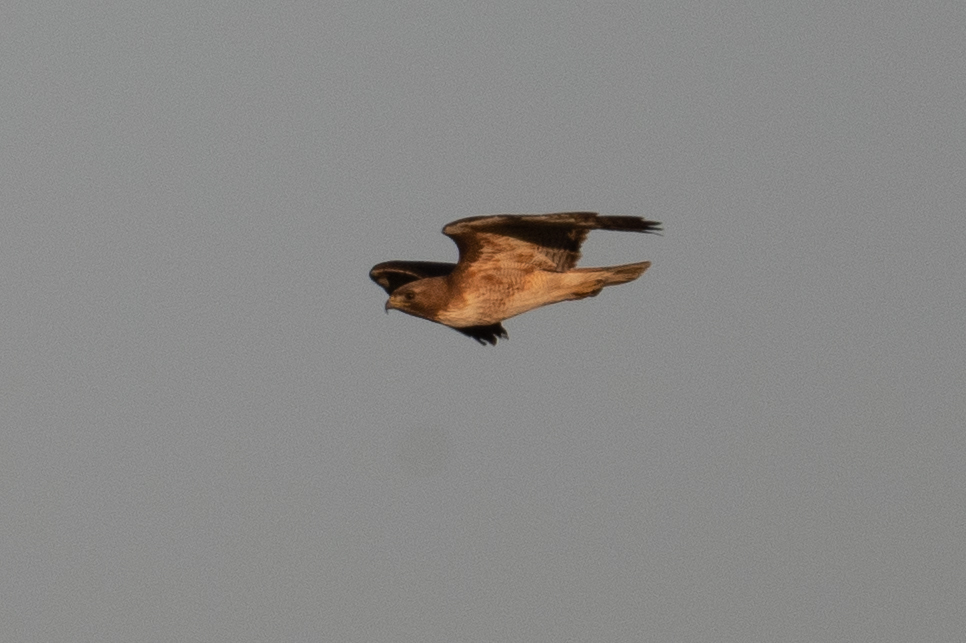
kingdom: Animalia
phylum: Chordata
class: Aves
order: Accipitriformes
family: Accipitridae
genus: Buteo
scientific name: Buteo jamaicensis
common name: Red-tailed hawk
